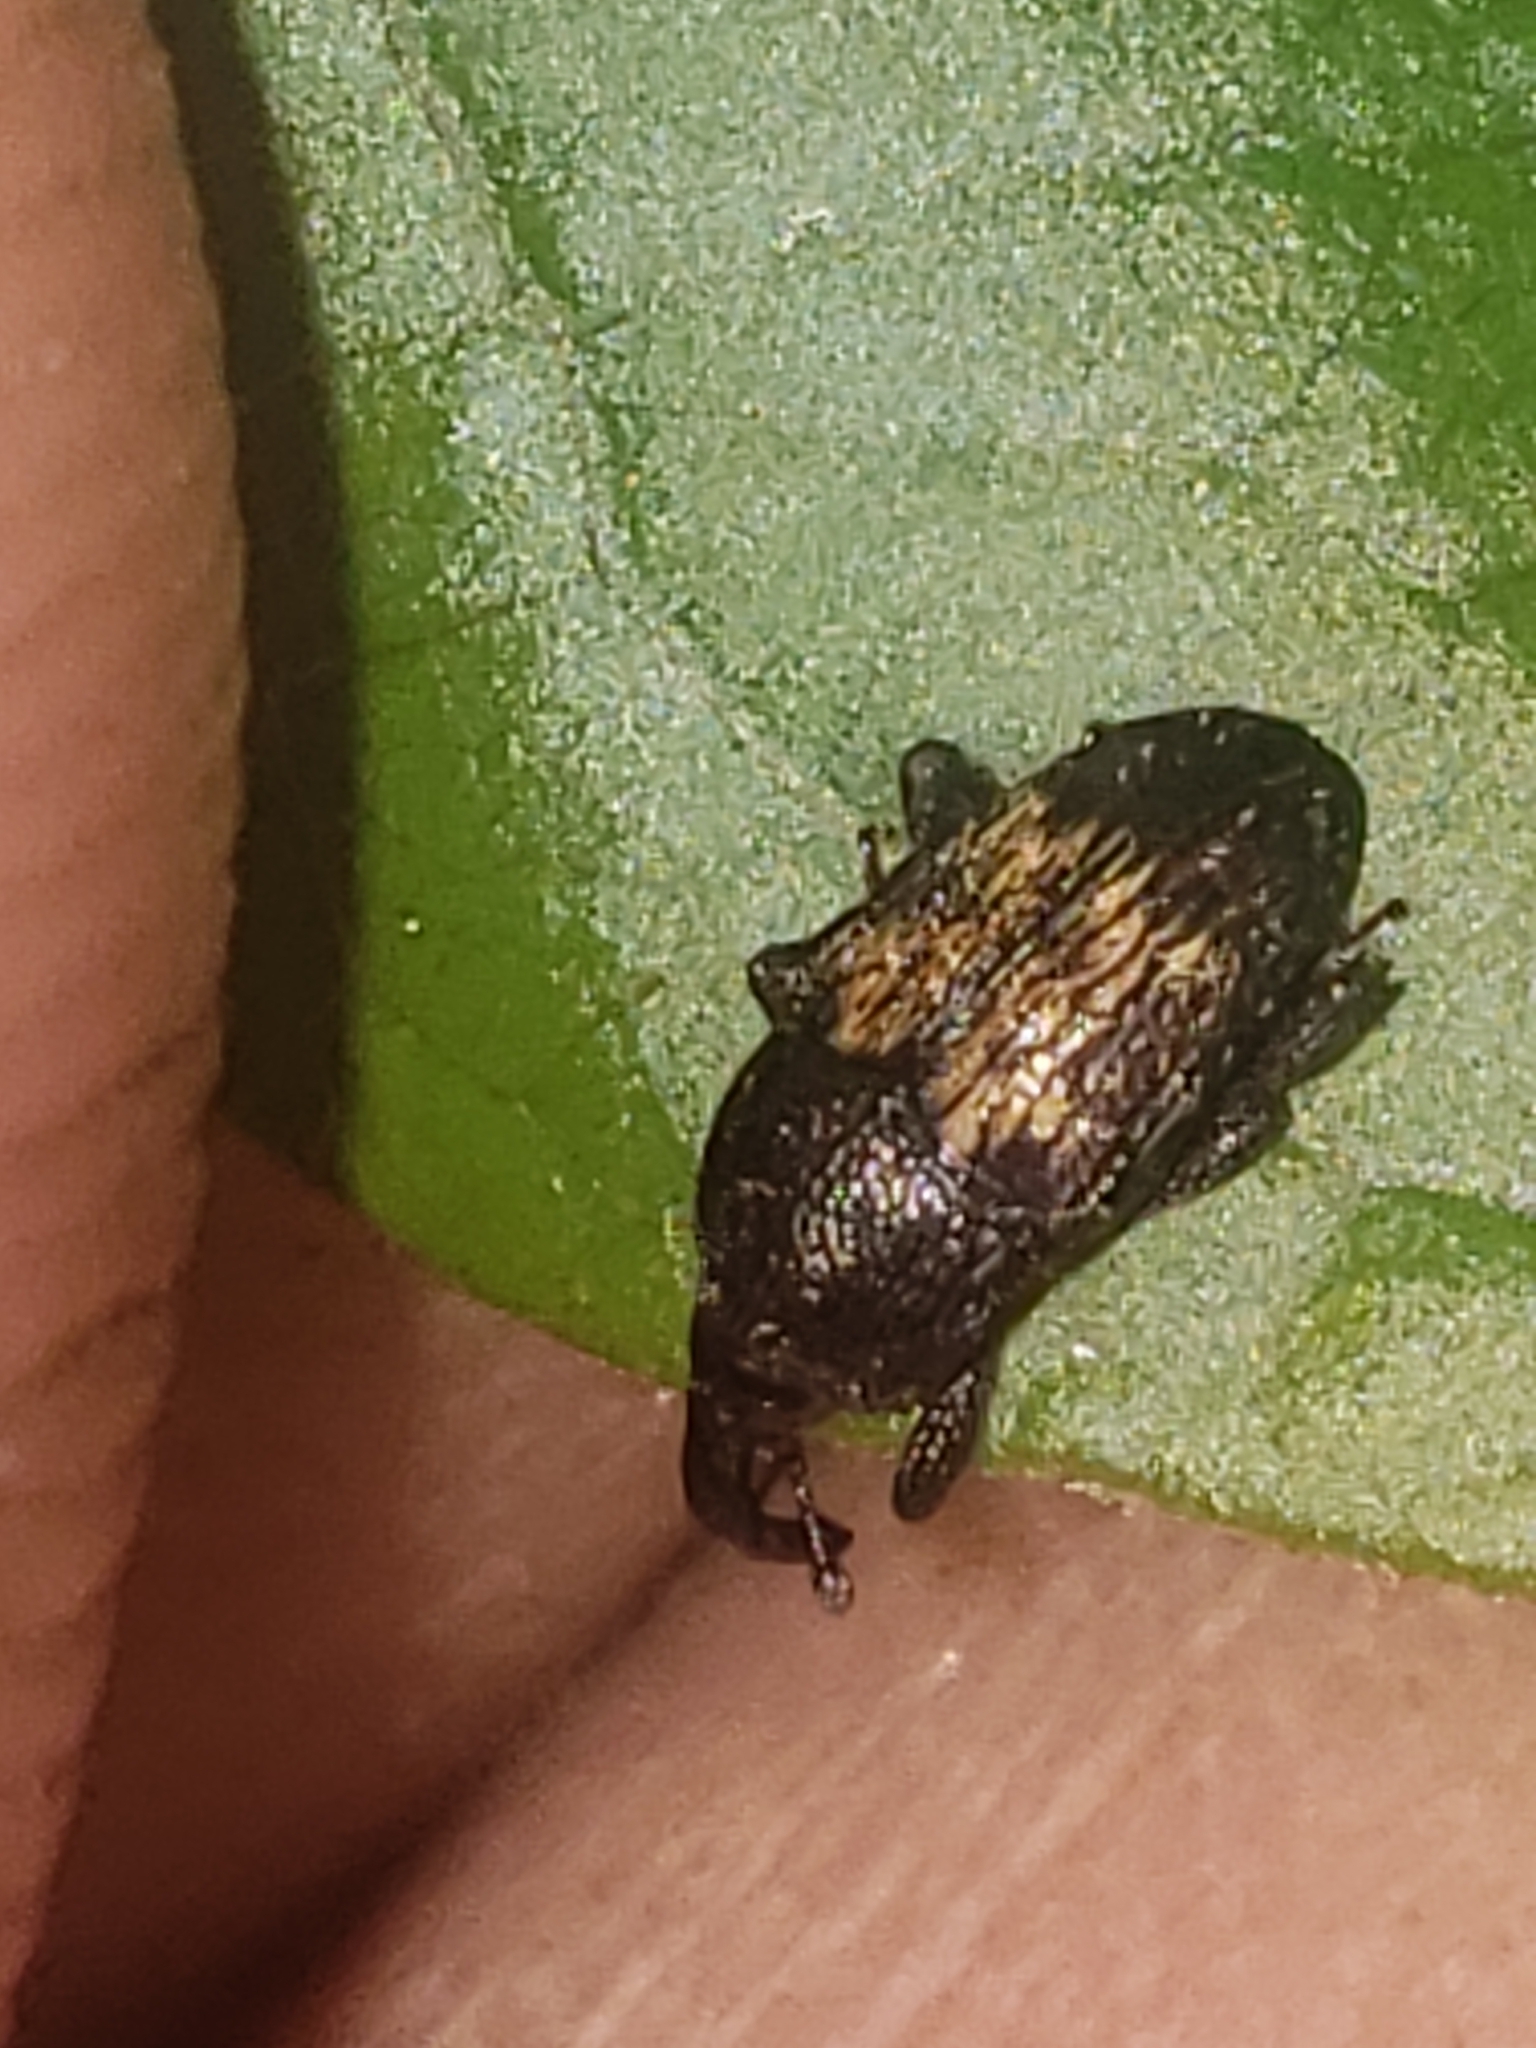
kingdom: Animalia
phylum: Arthropoda
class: Insecta
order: Coleoptera
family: Curculionidae
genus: Glyptobaris
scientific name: Glyptobaris lecontei
